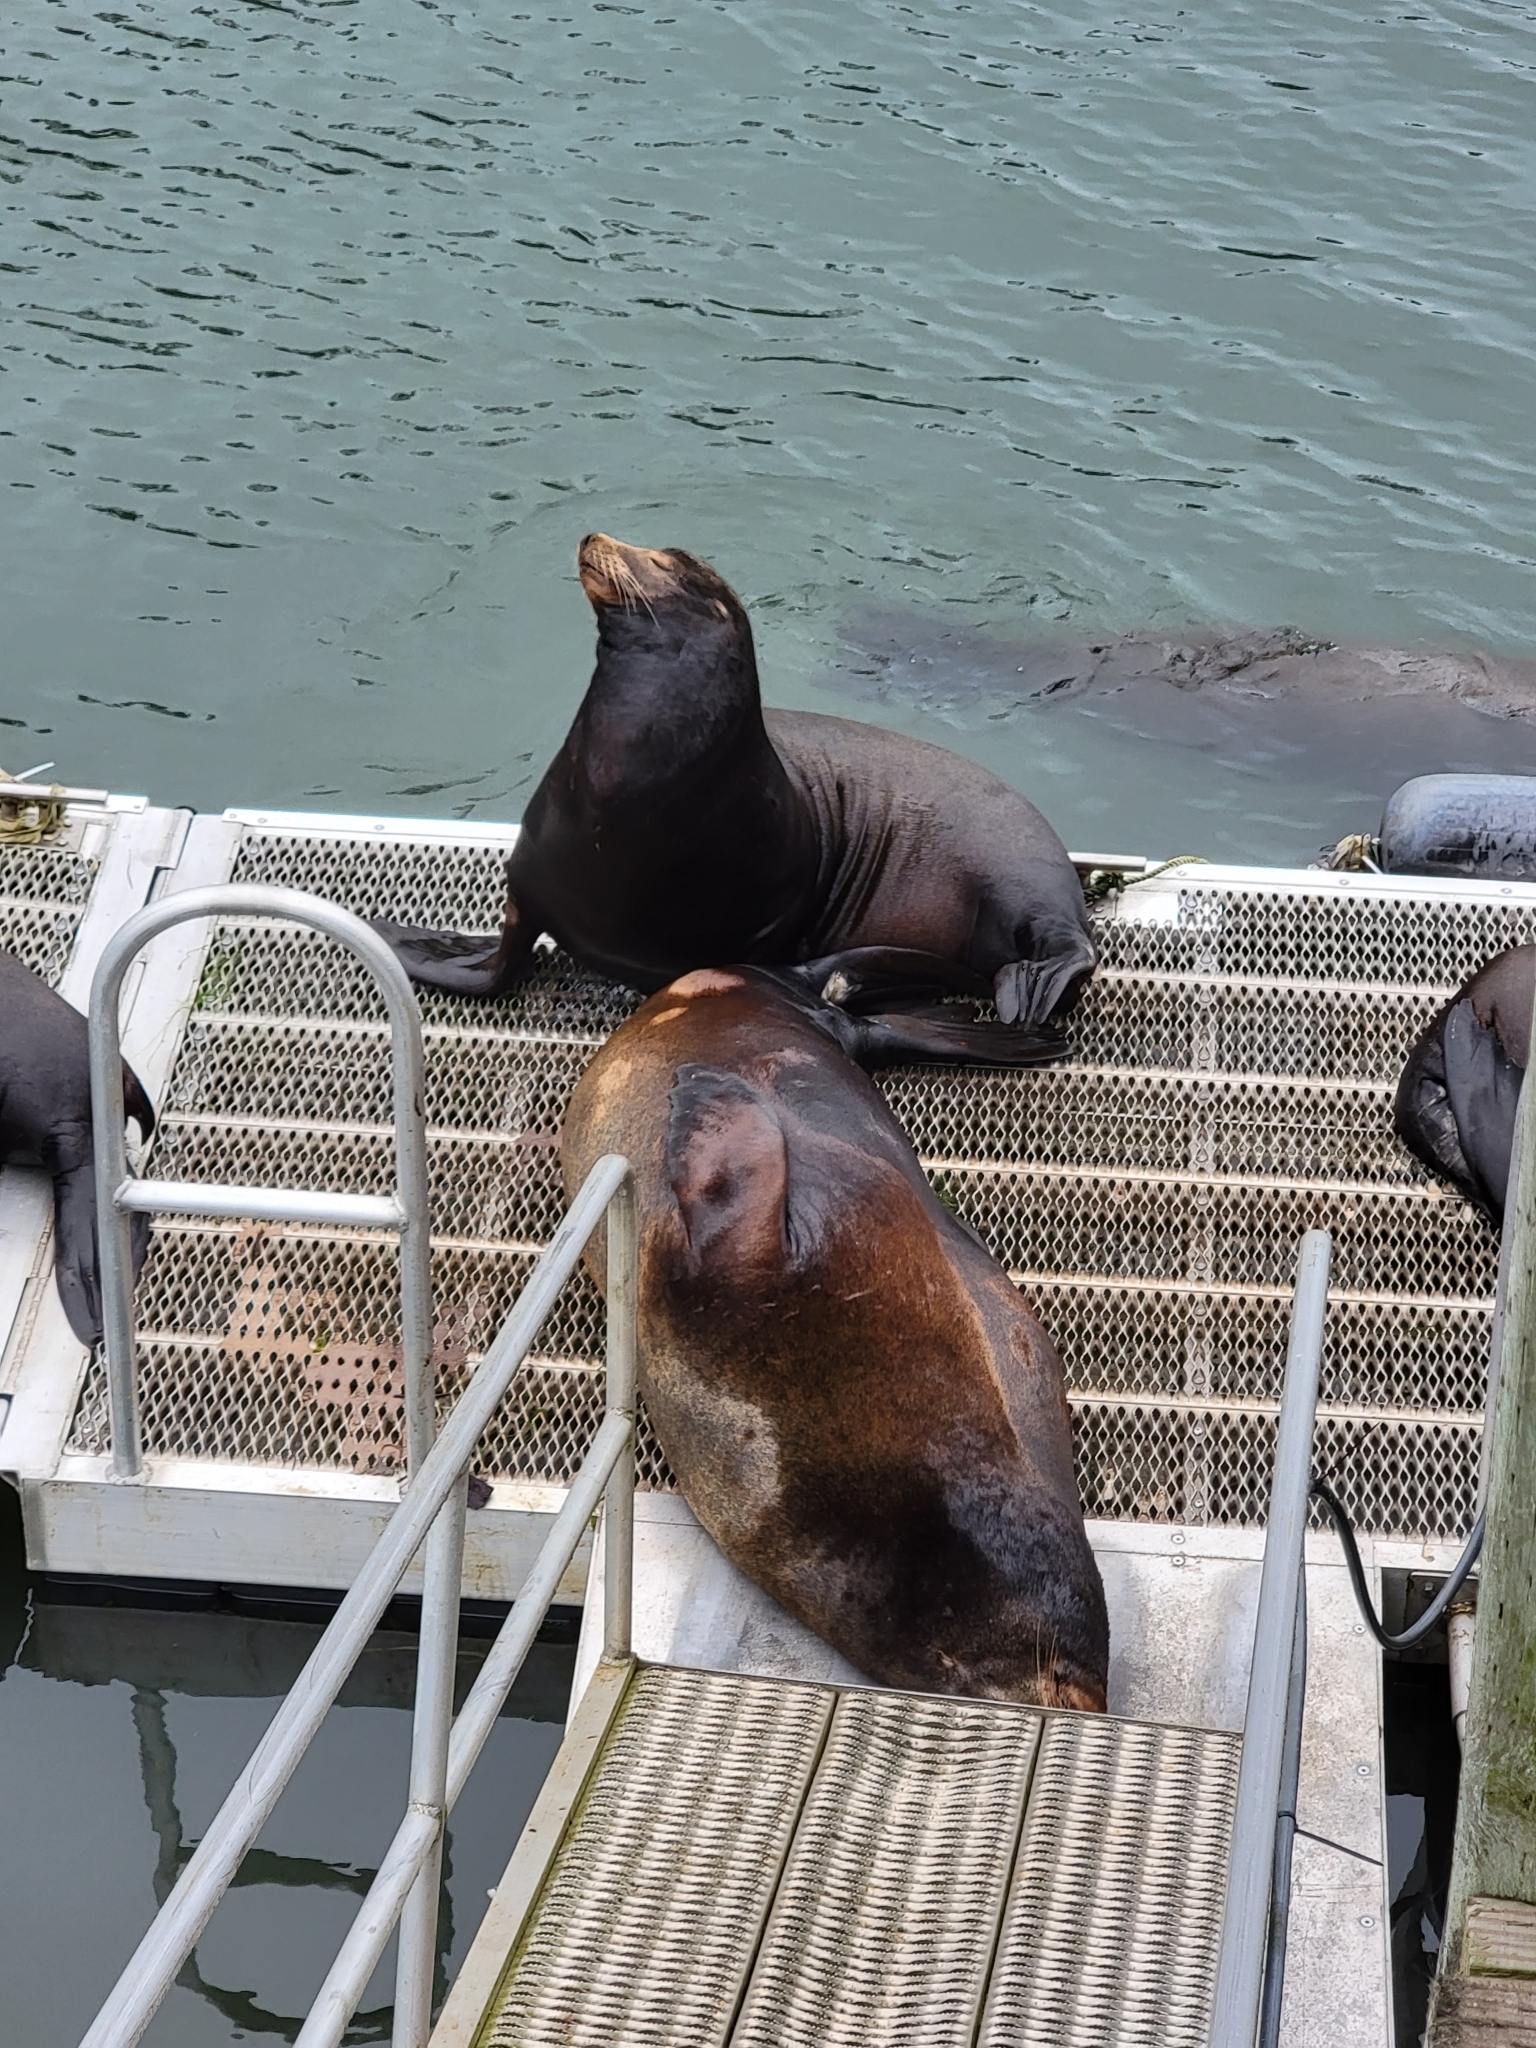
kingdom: Animalia
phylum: Chordata
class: Mammalia
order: Carnivora
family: Otariidae
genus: Zalophus
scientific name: Zalophus californianus
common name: California sea lion
